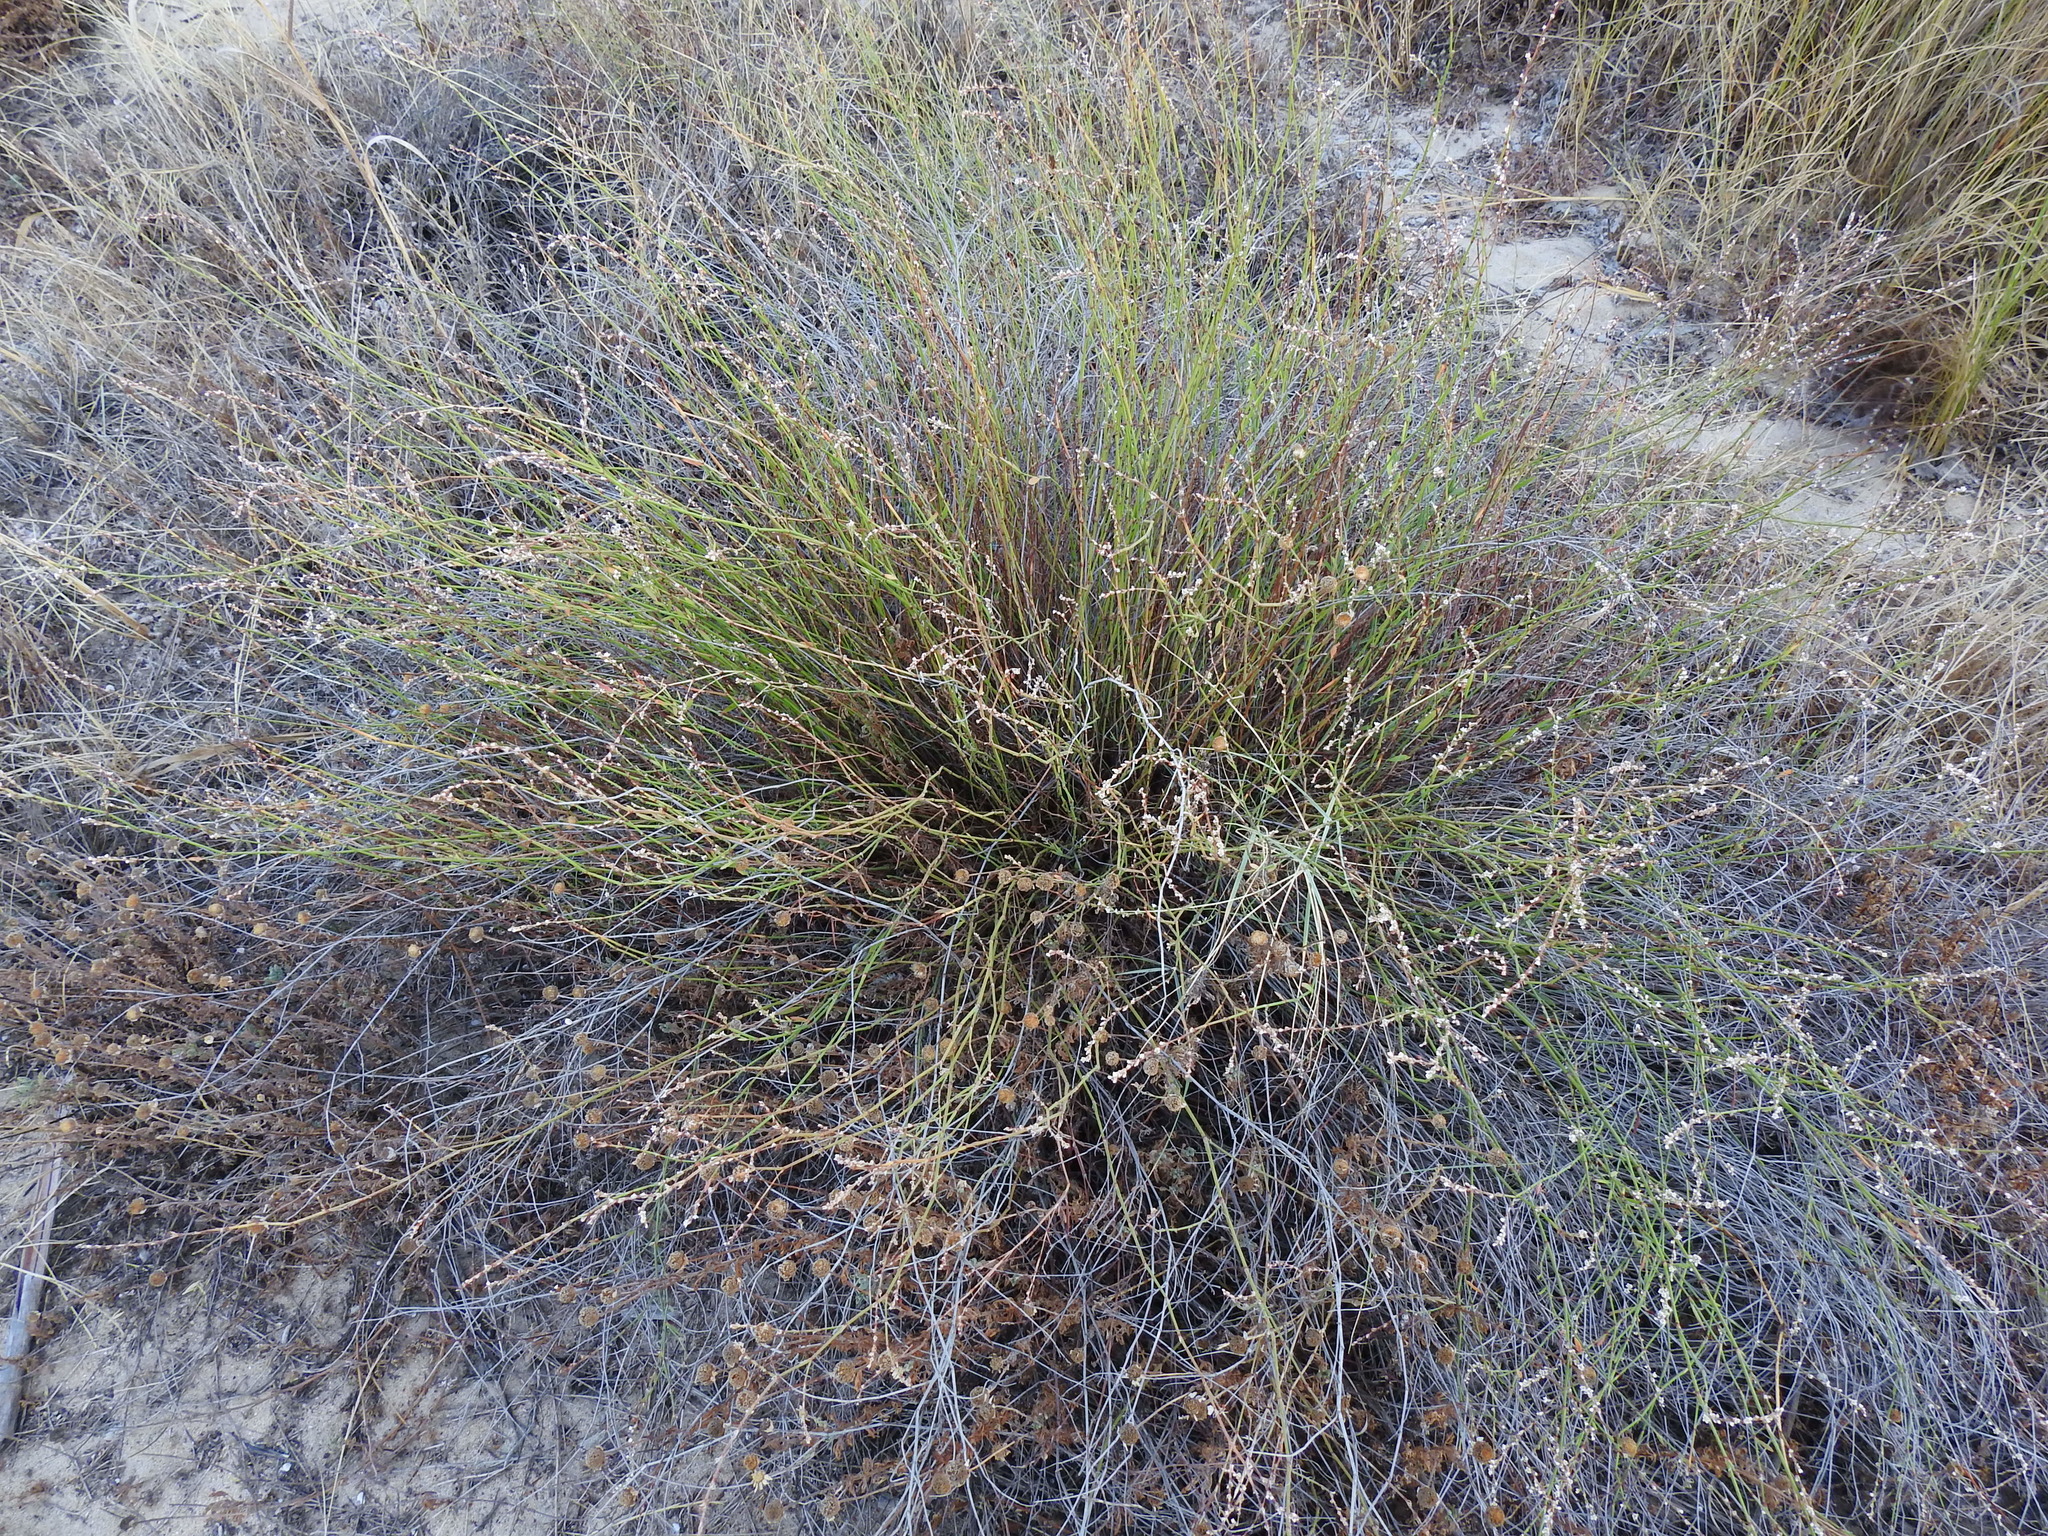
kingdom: Plantae
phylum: Tracheophyta
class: Magnoliopsida
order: Caryophyllales
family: Polygonaceae
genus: Polygonum
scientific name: Polygonum equisetiforme
